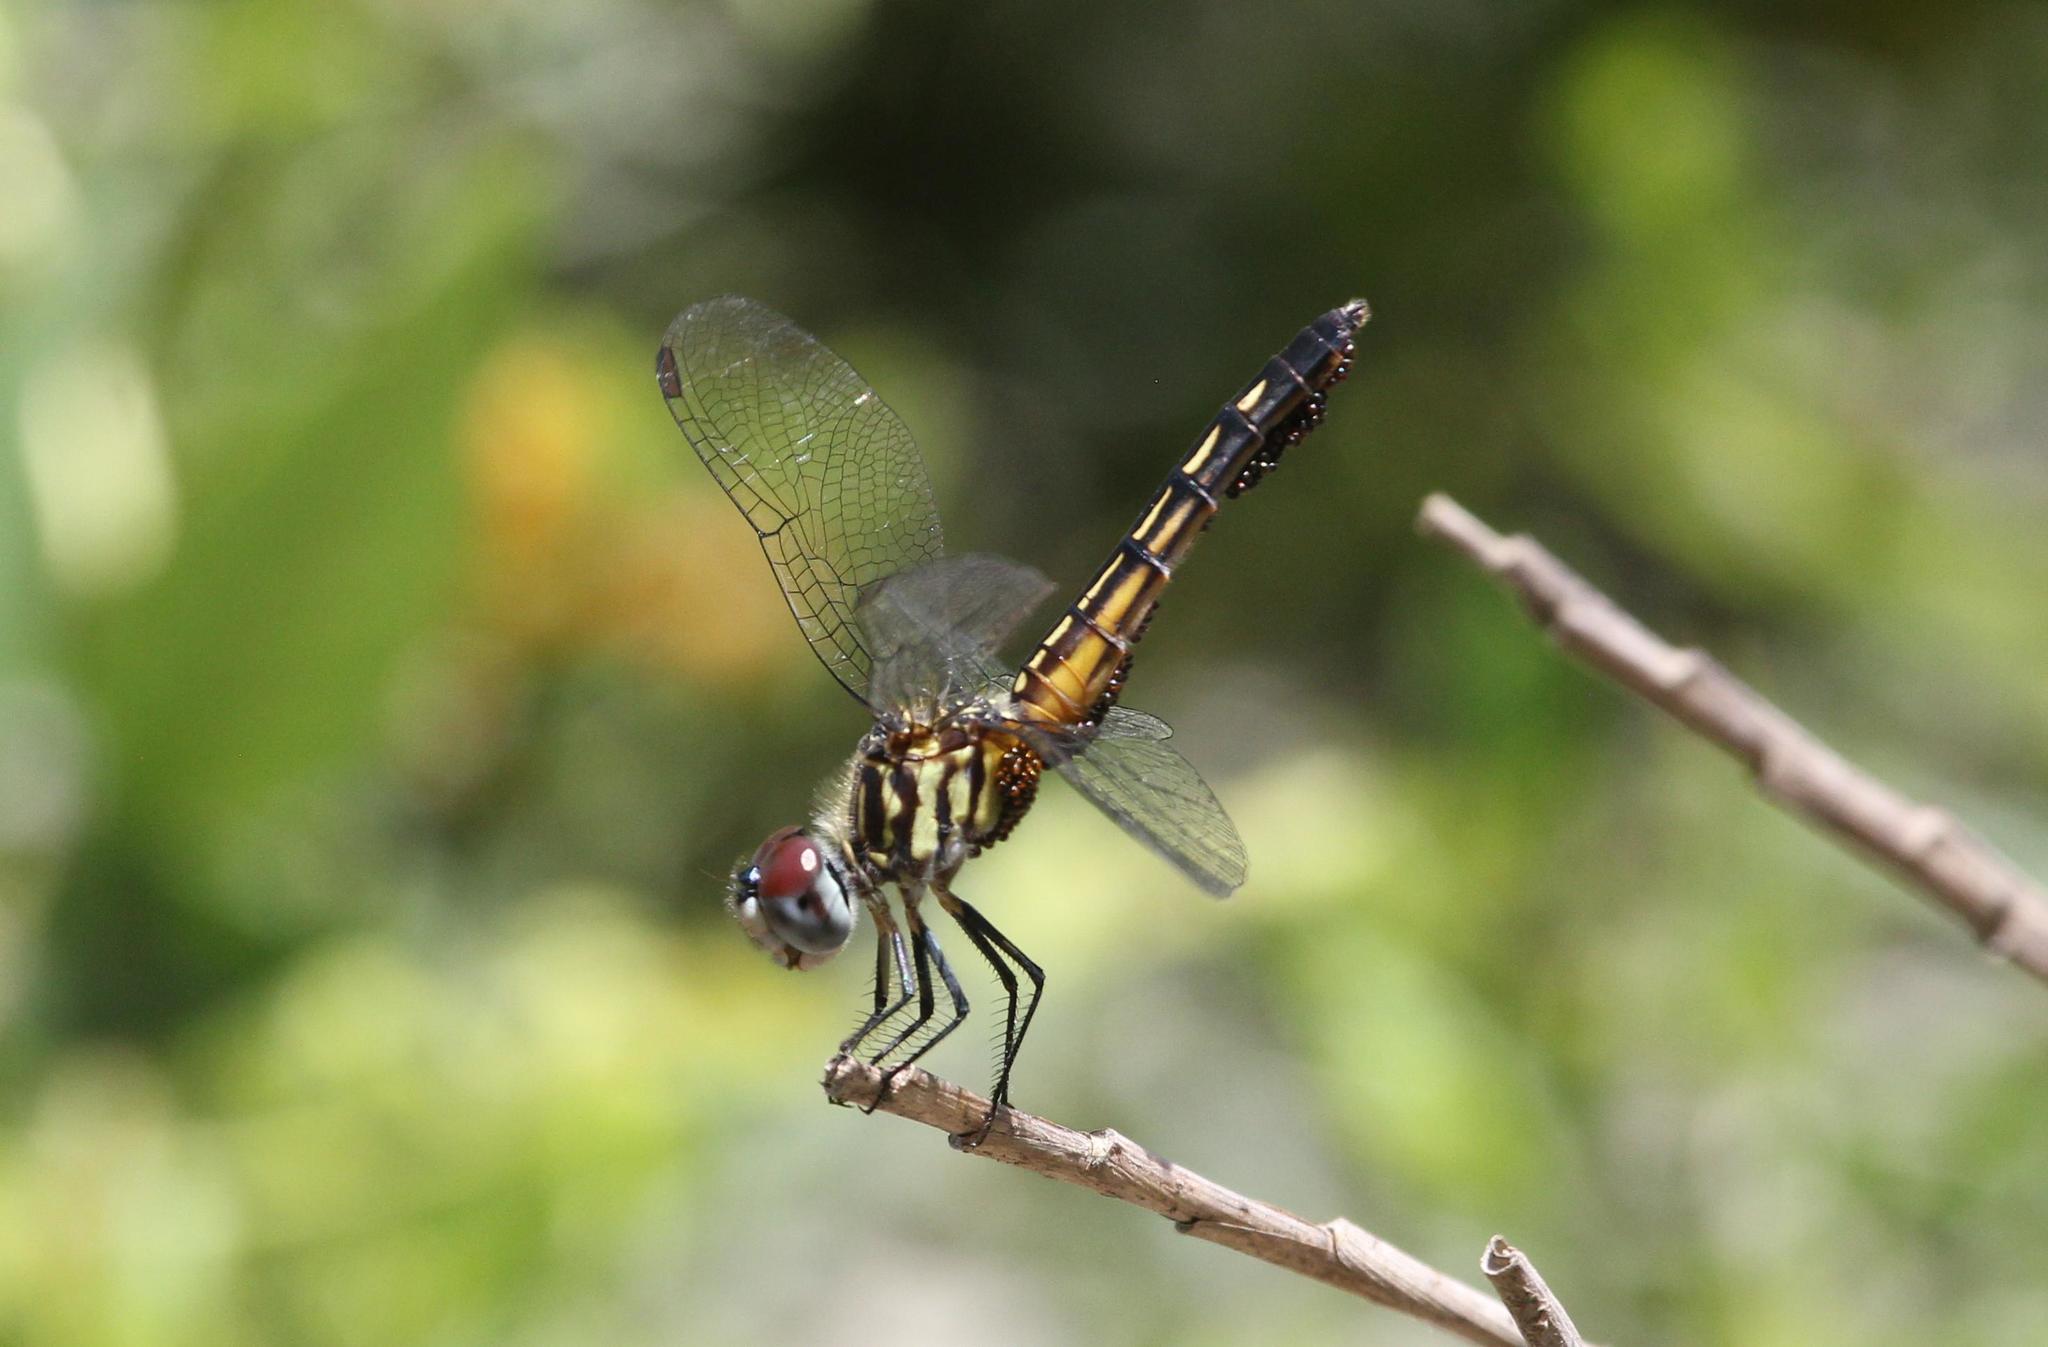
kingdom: Animalia
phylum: Arthropoda
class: Insecta
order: Odonata
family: Libellulidae
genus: Pachydiplax
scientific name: Pachydiplax longipennis
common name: Blue dasher
